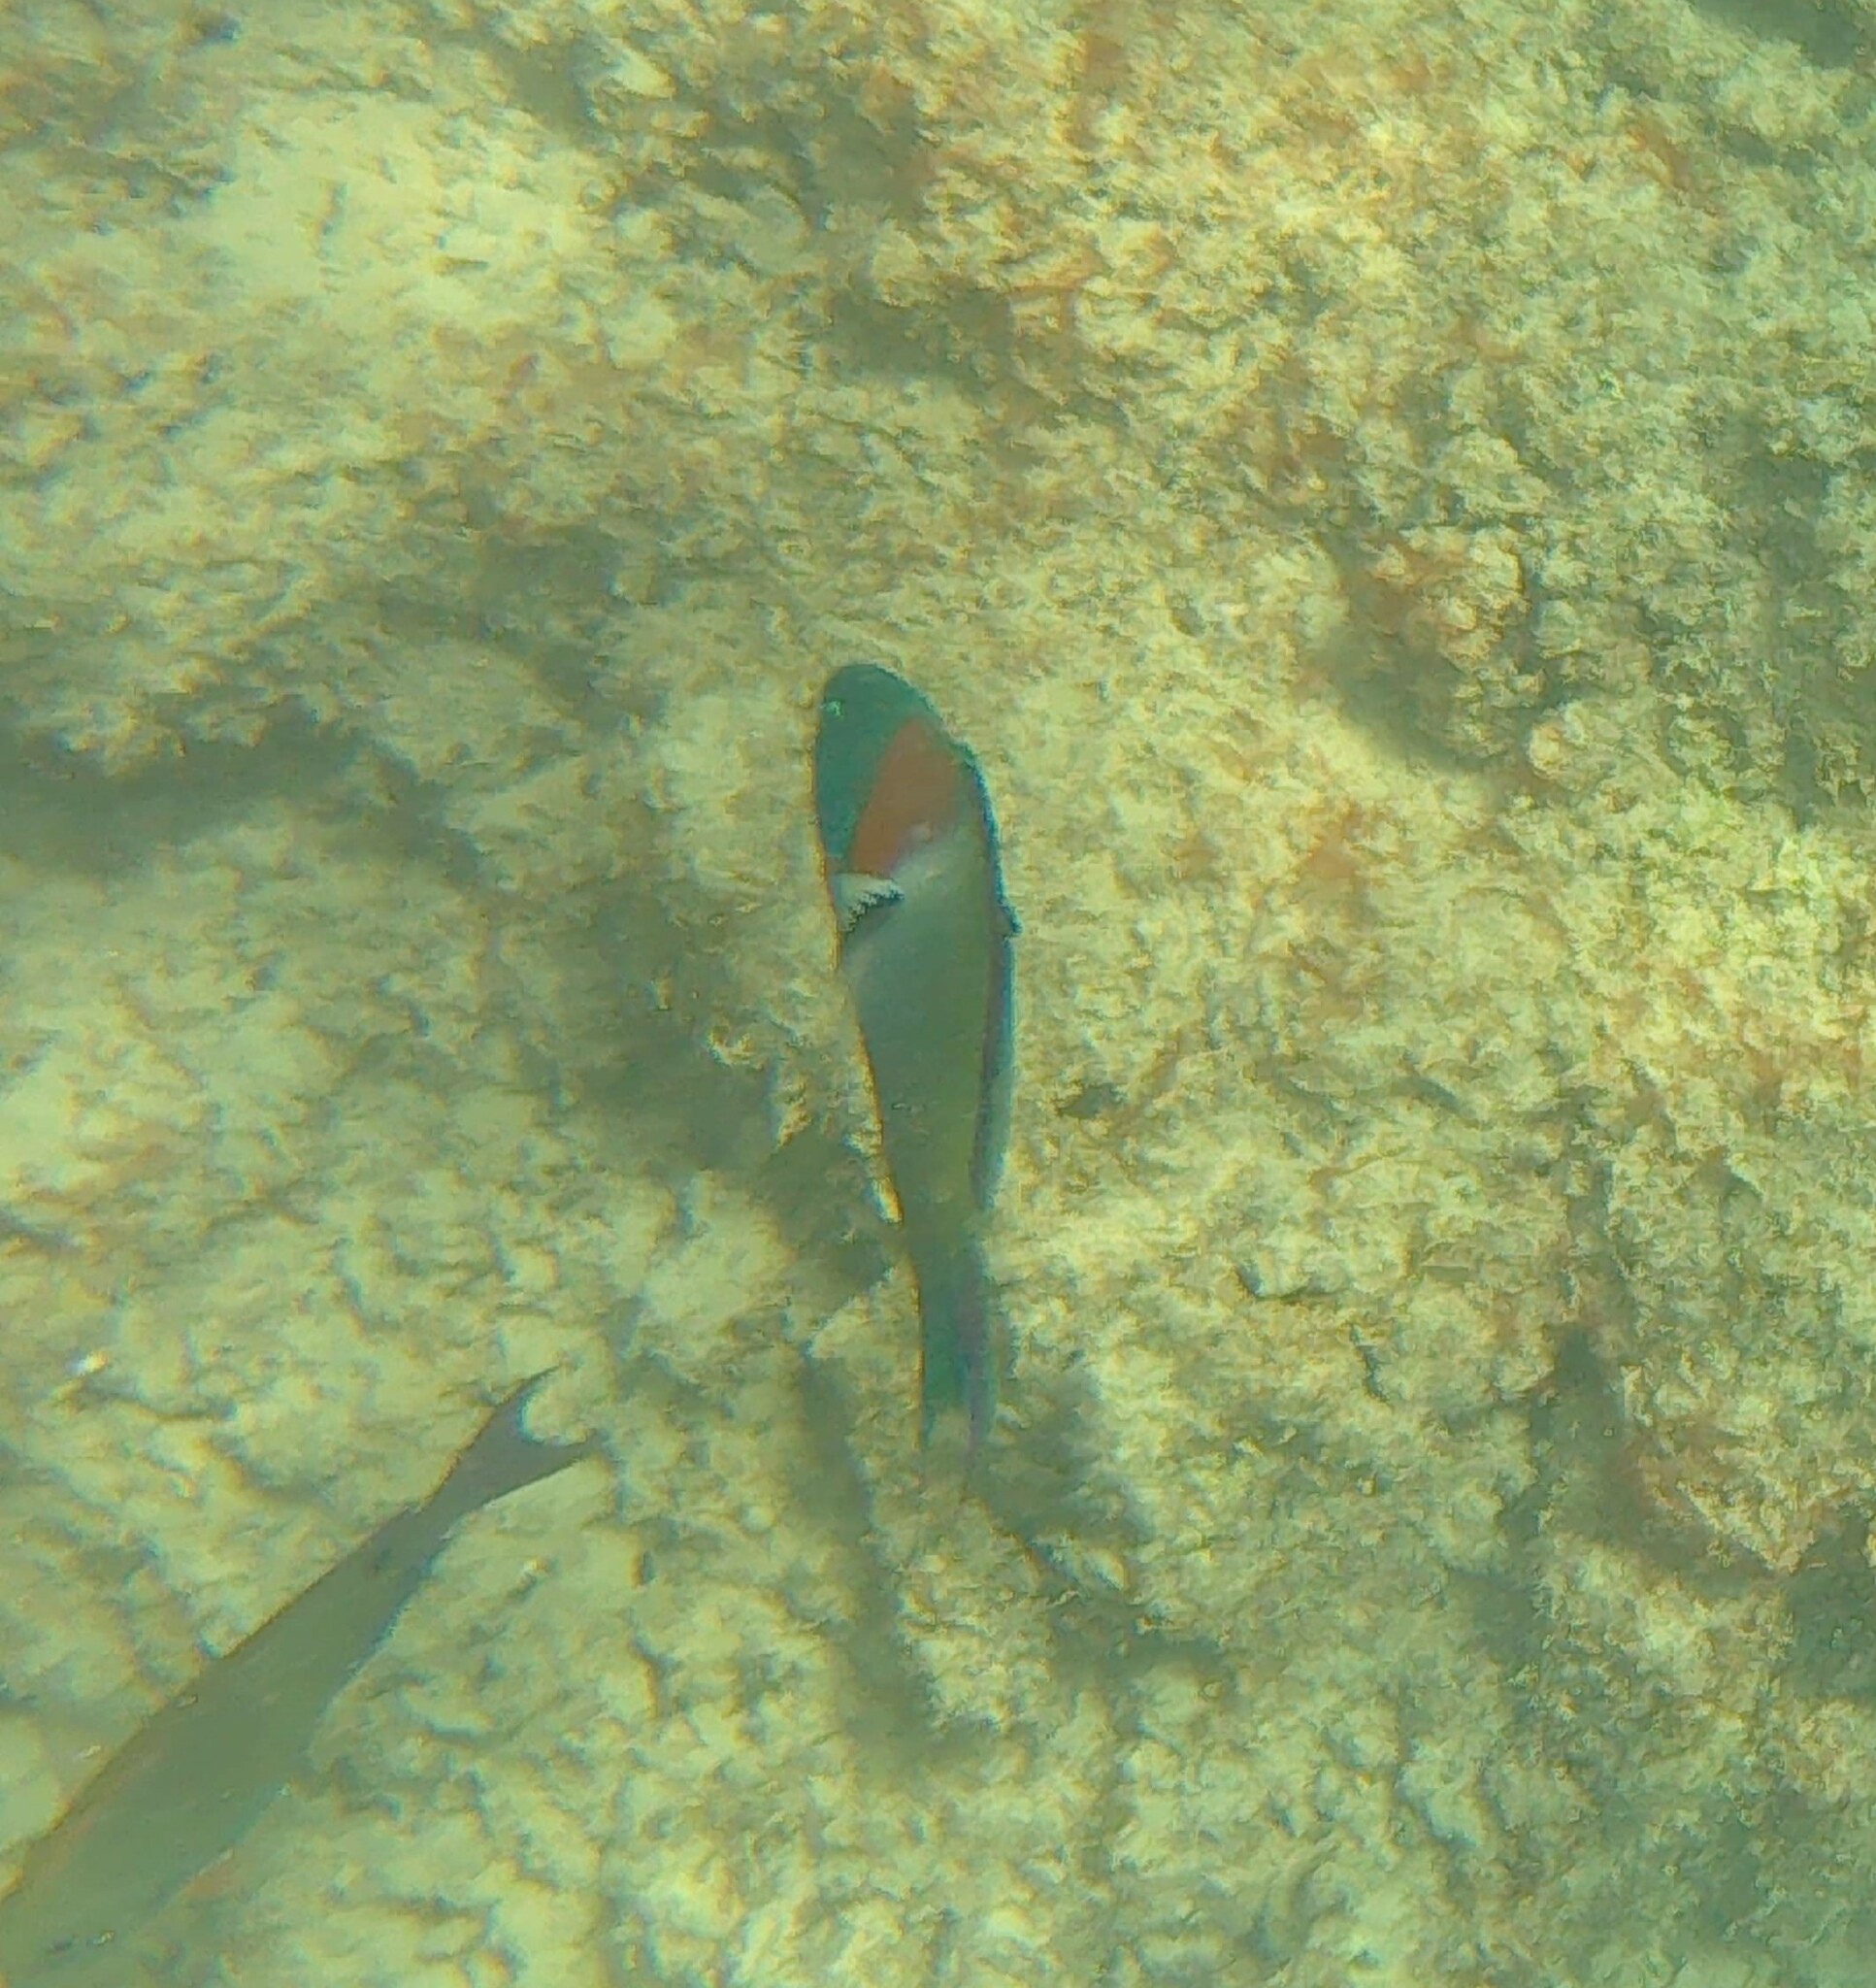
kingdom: Animalia
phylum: Chordata
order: Perciformes
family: Labridae
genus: Thalassoma
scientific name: Thalassoma duperrey
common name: Saddle wrasse
